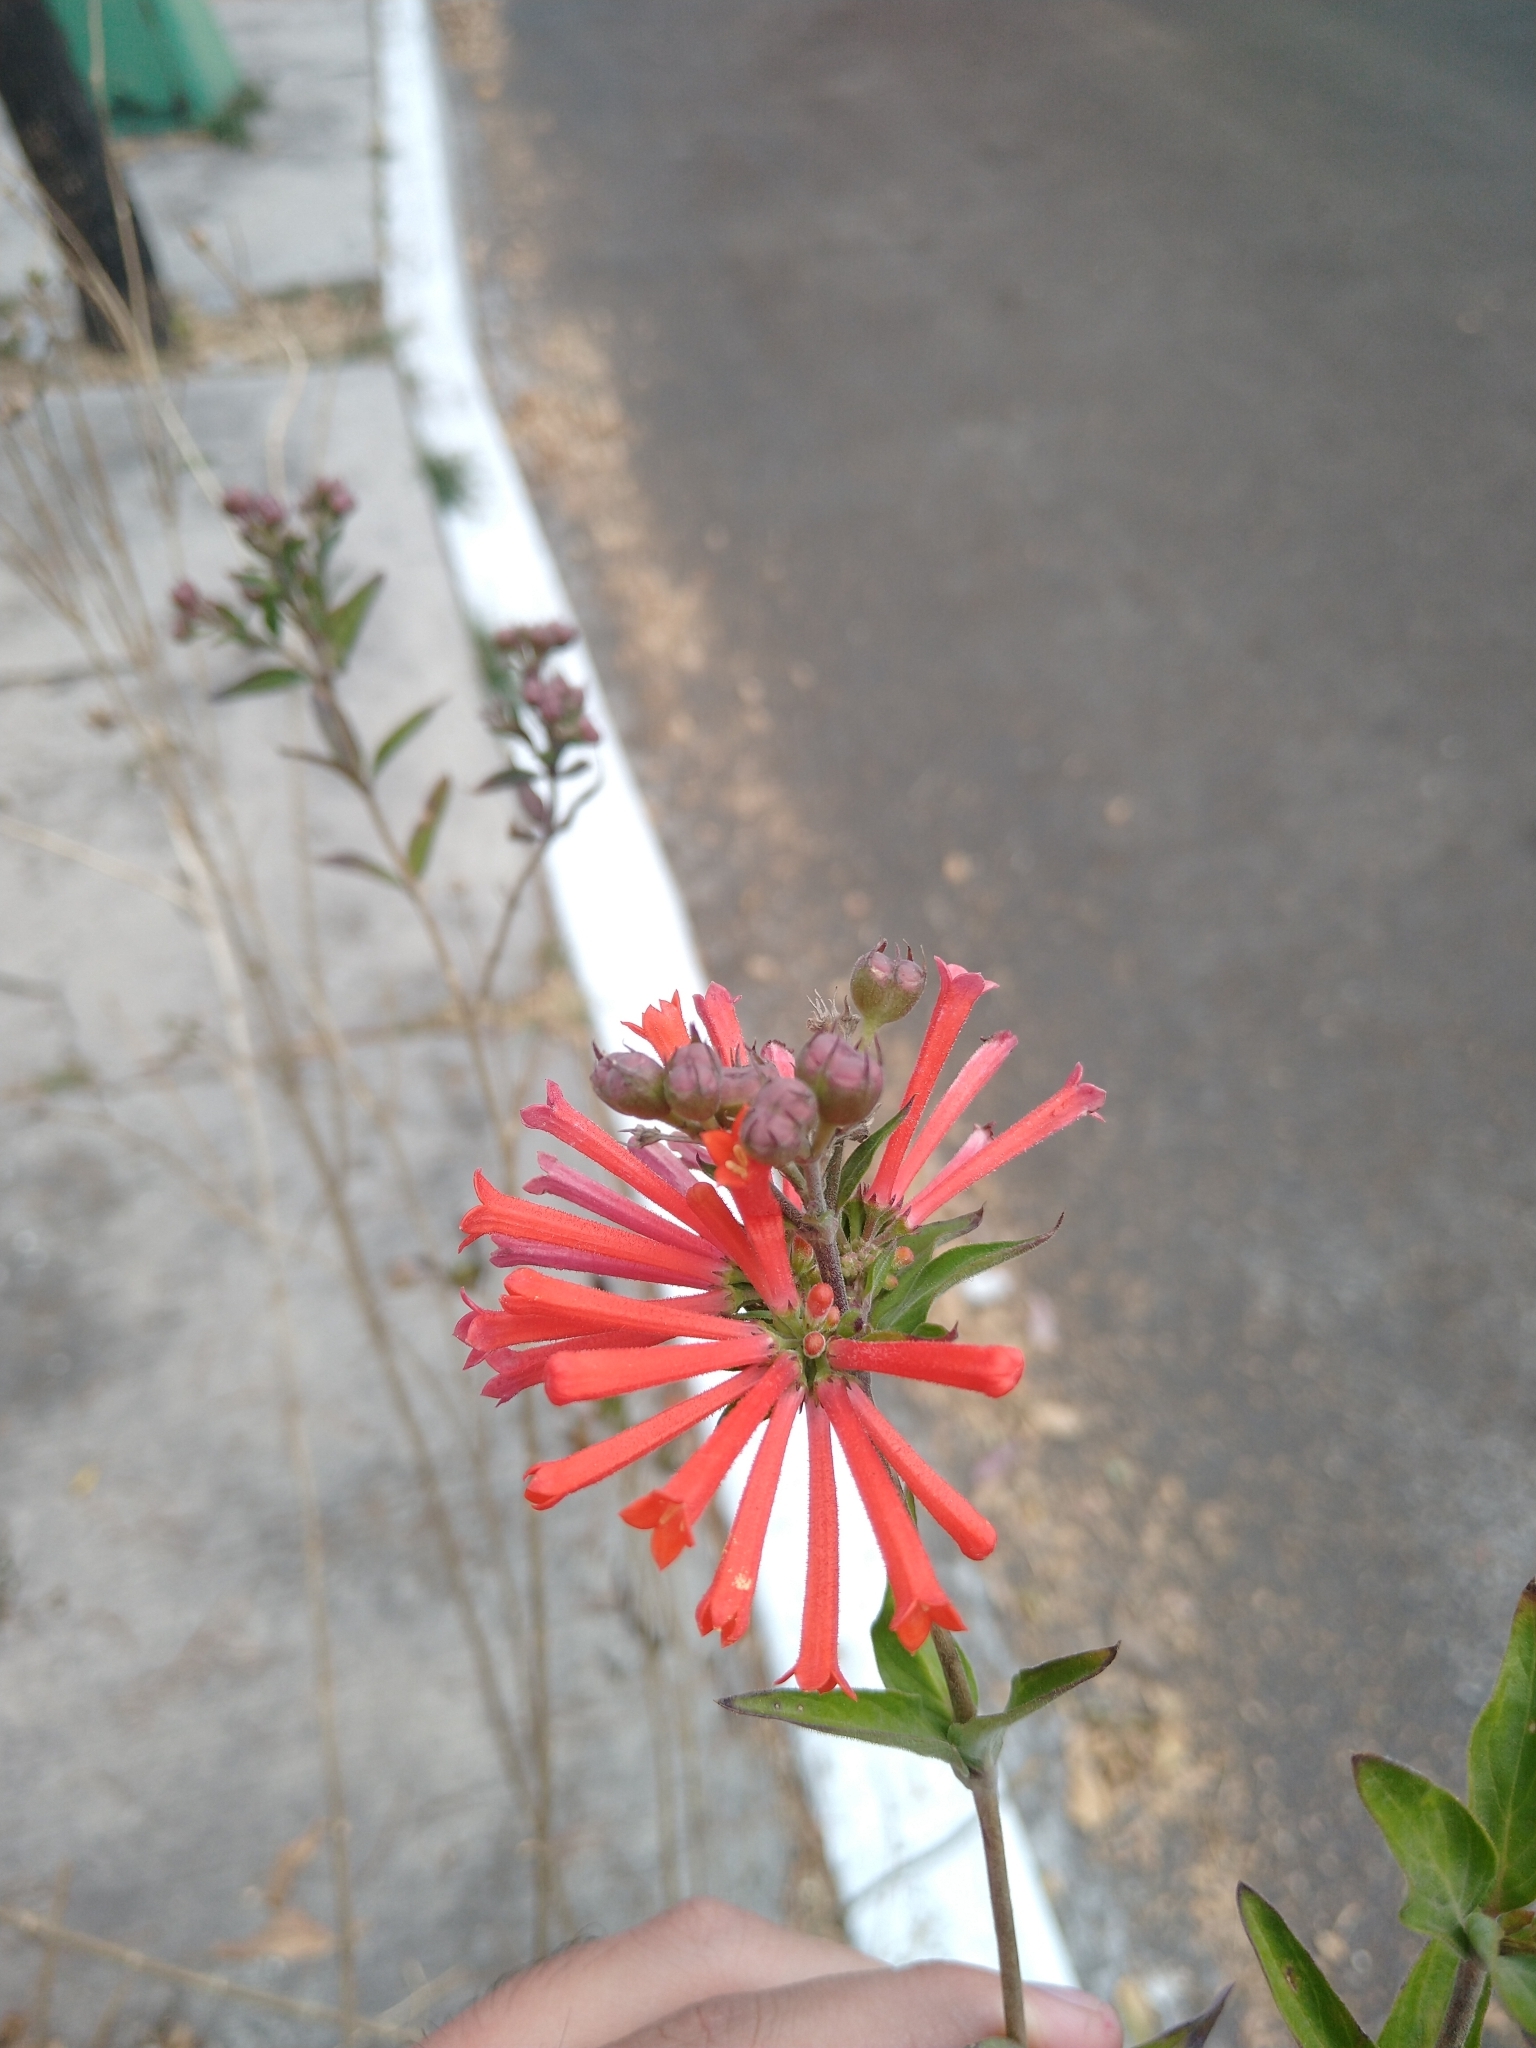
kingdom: Plantae
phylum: Tracheophyta
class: Magnoliopsida
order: Gentianales
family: Rubiaceae
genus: Bouvardia
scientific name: Bouvardia ternifolia
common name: Scarlet bouvardia
